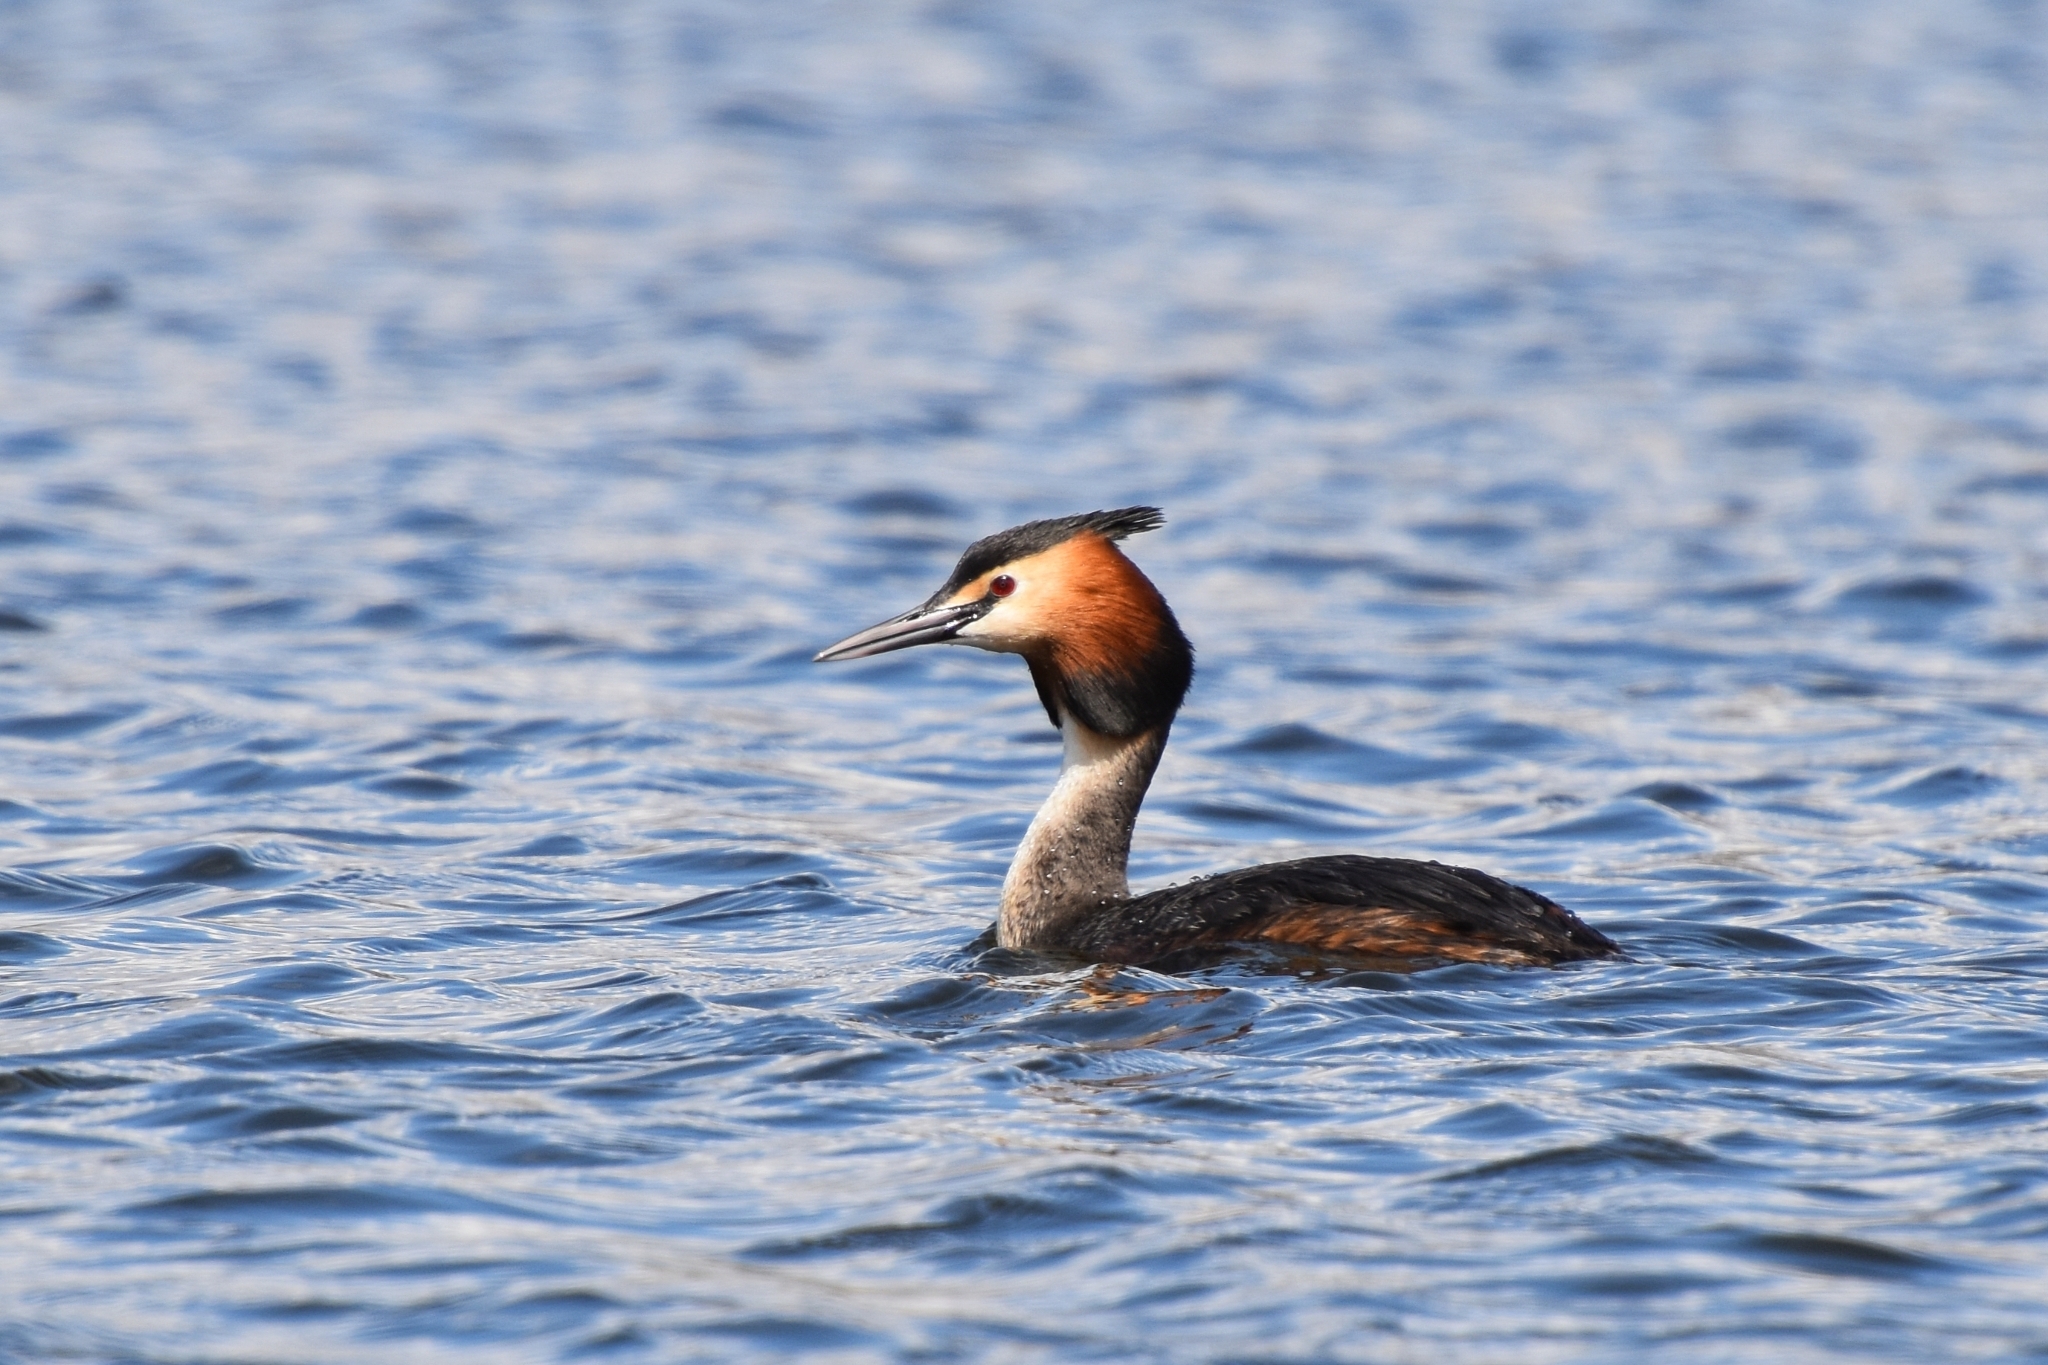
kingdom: Animalia
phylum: Chordata
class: Aves
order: Podicipediformes
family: Podicipedidae
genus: Podiceps
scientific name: Podiceps cristatus
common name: Great crested grebe
